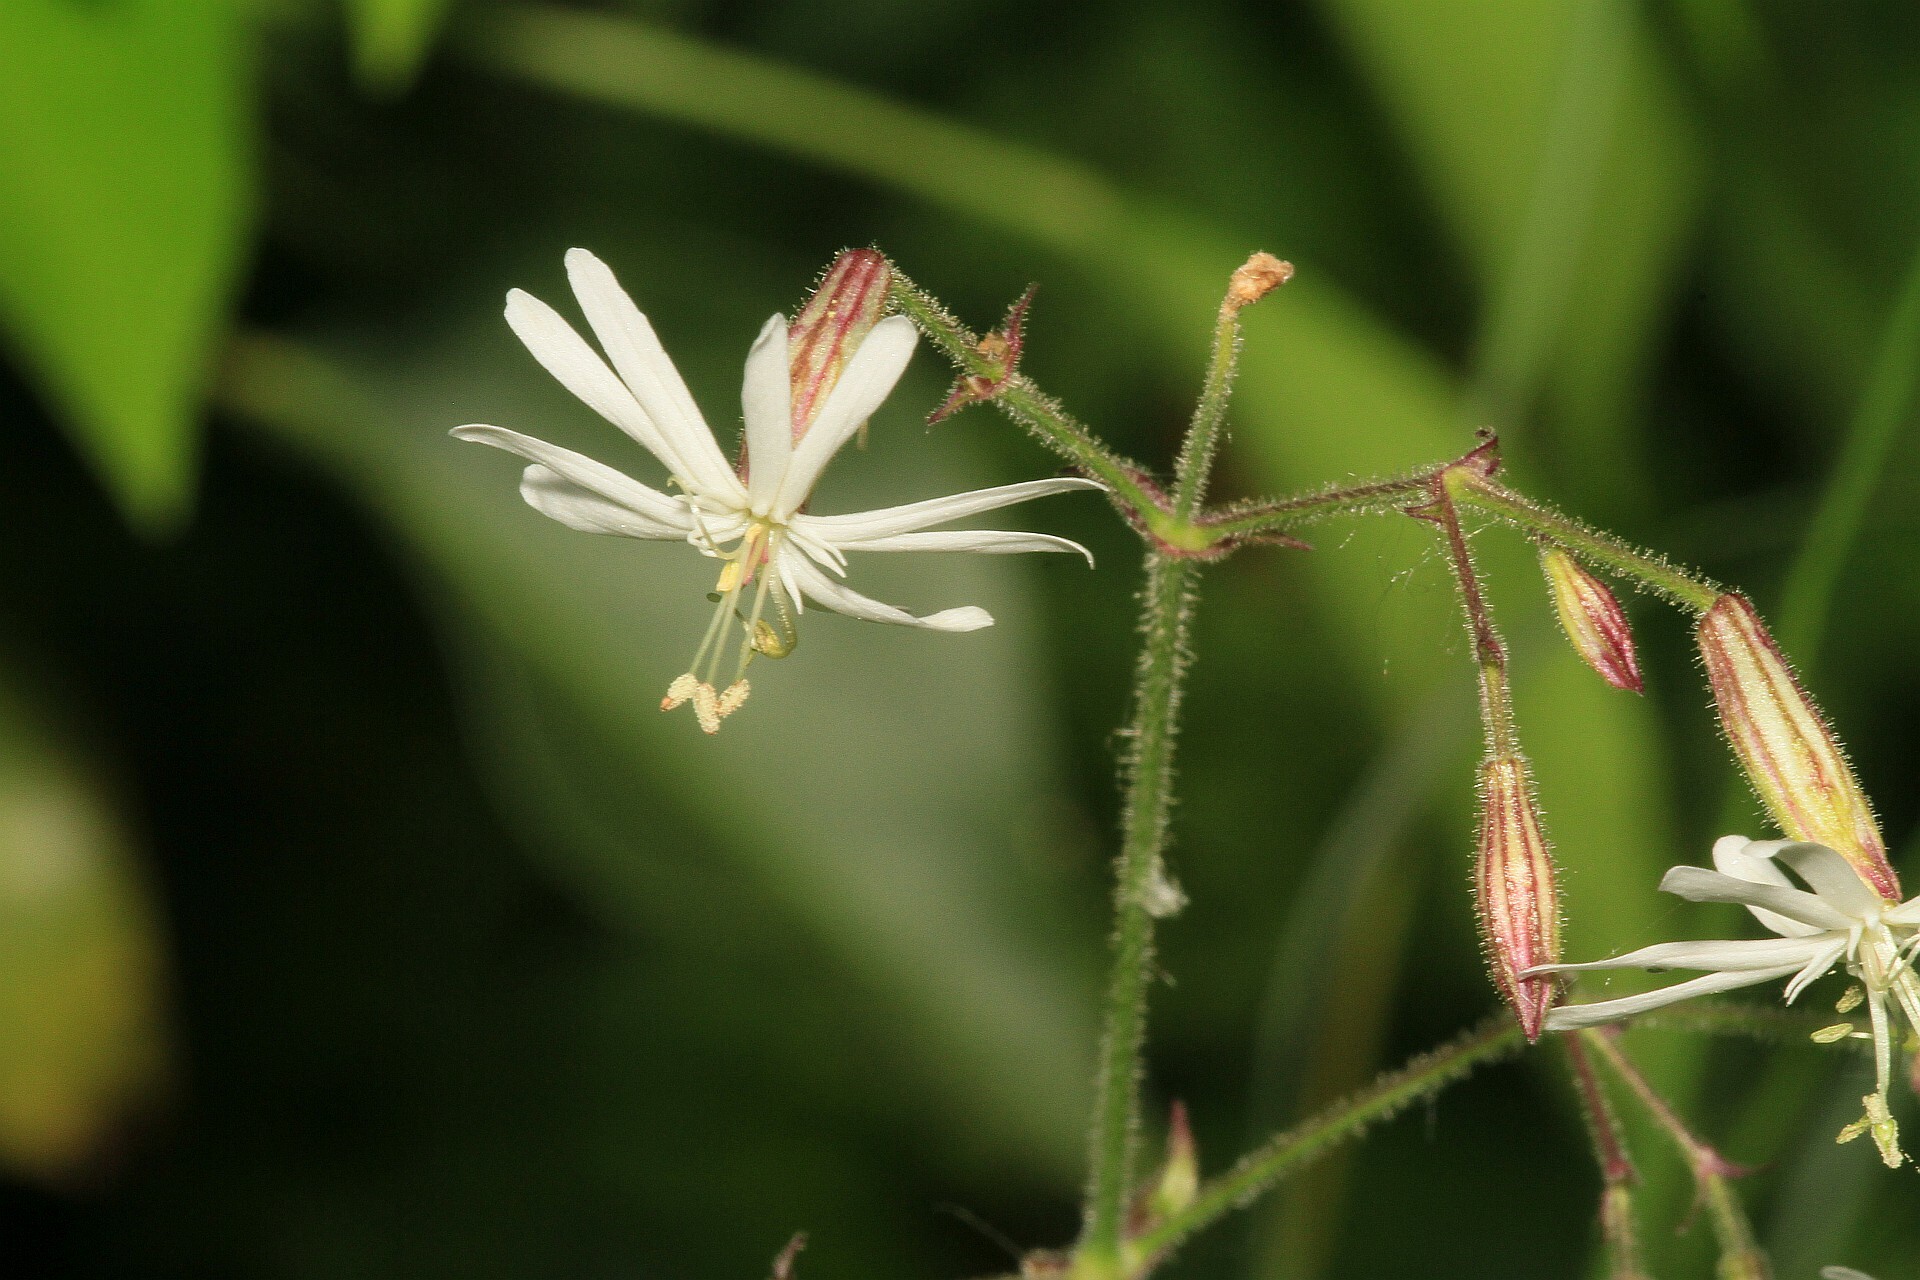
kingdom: Plantae
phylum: Tracheophyta
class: Magnoliopsida
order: Caryophyllales
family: Caryophyllaceae
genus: Silene
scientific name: Silene nutans
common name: Nottingham catchfly
